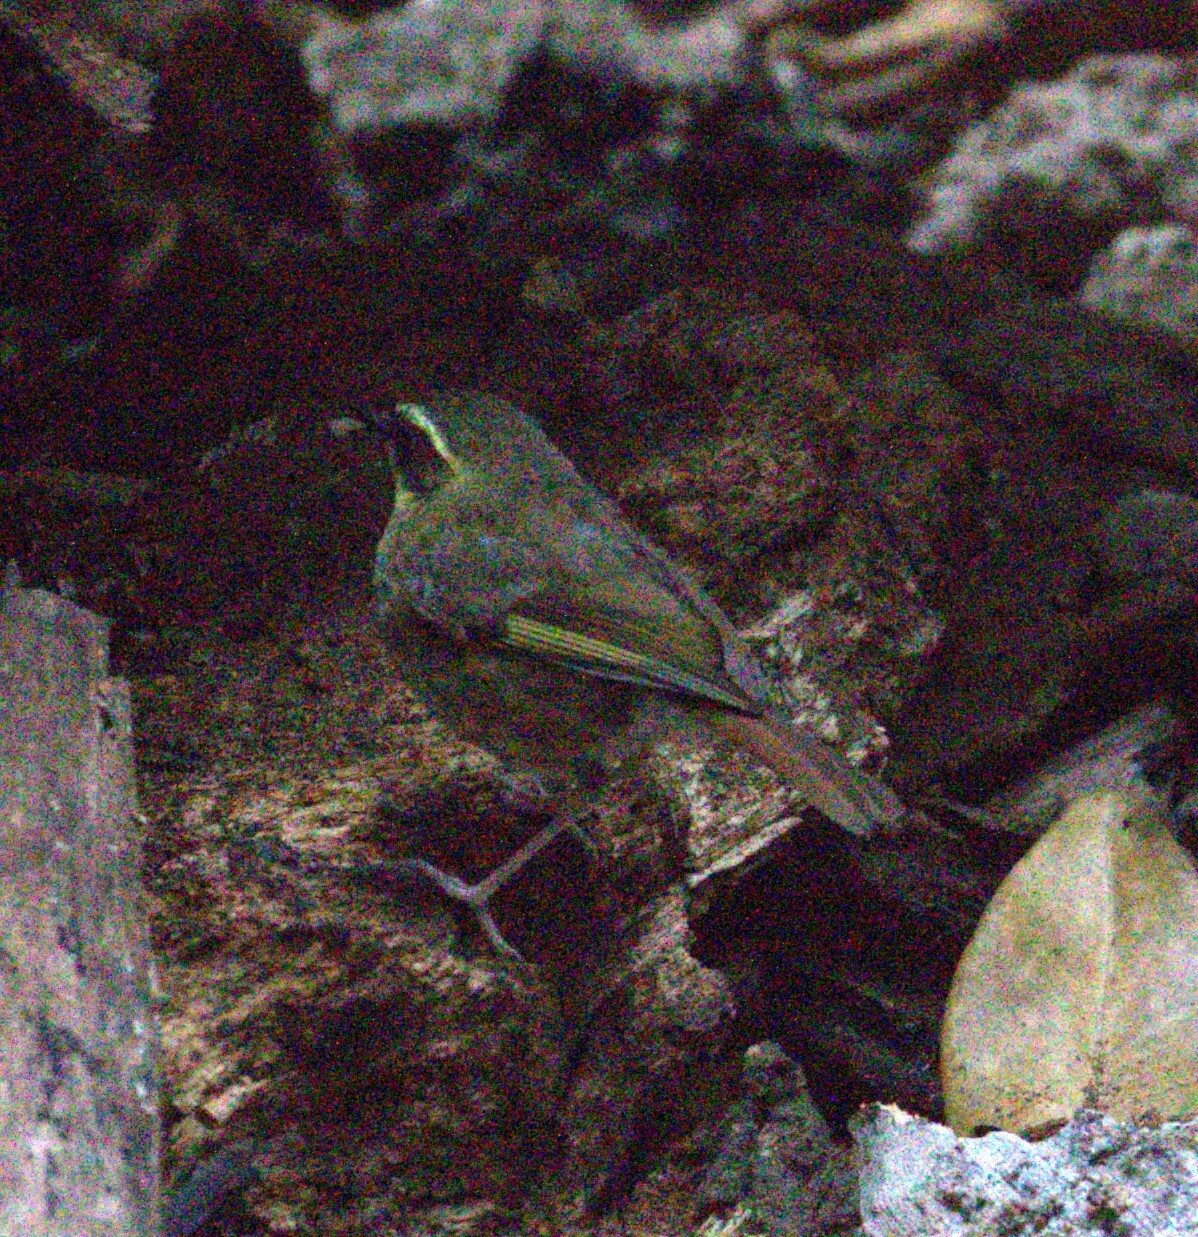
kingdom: Animalia
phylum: Chordata
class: Aves
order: Passeriformes
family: Acanthizidae
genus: Sericornis
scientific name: Sericornis citreogularis
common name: Yellow-throated scrubwren
